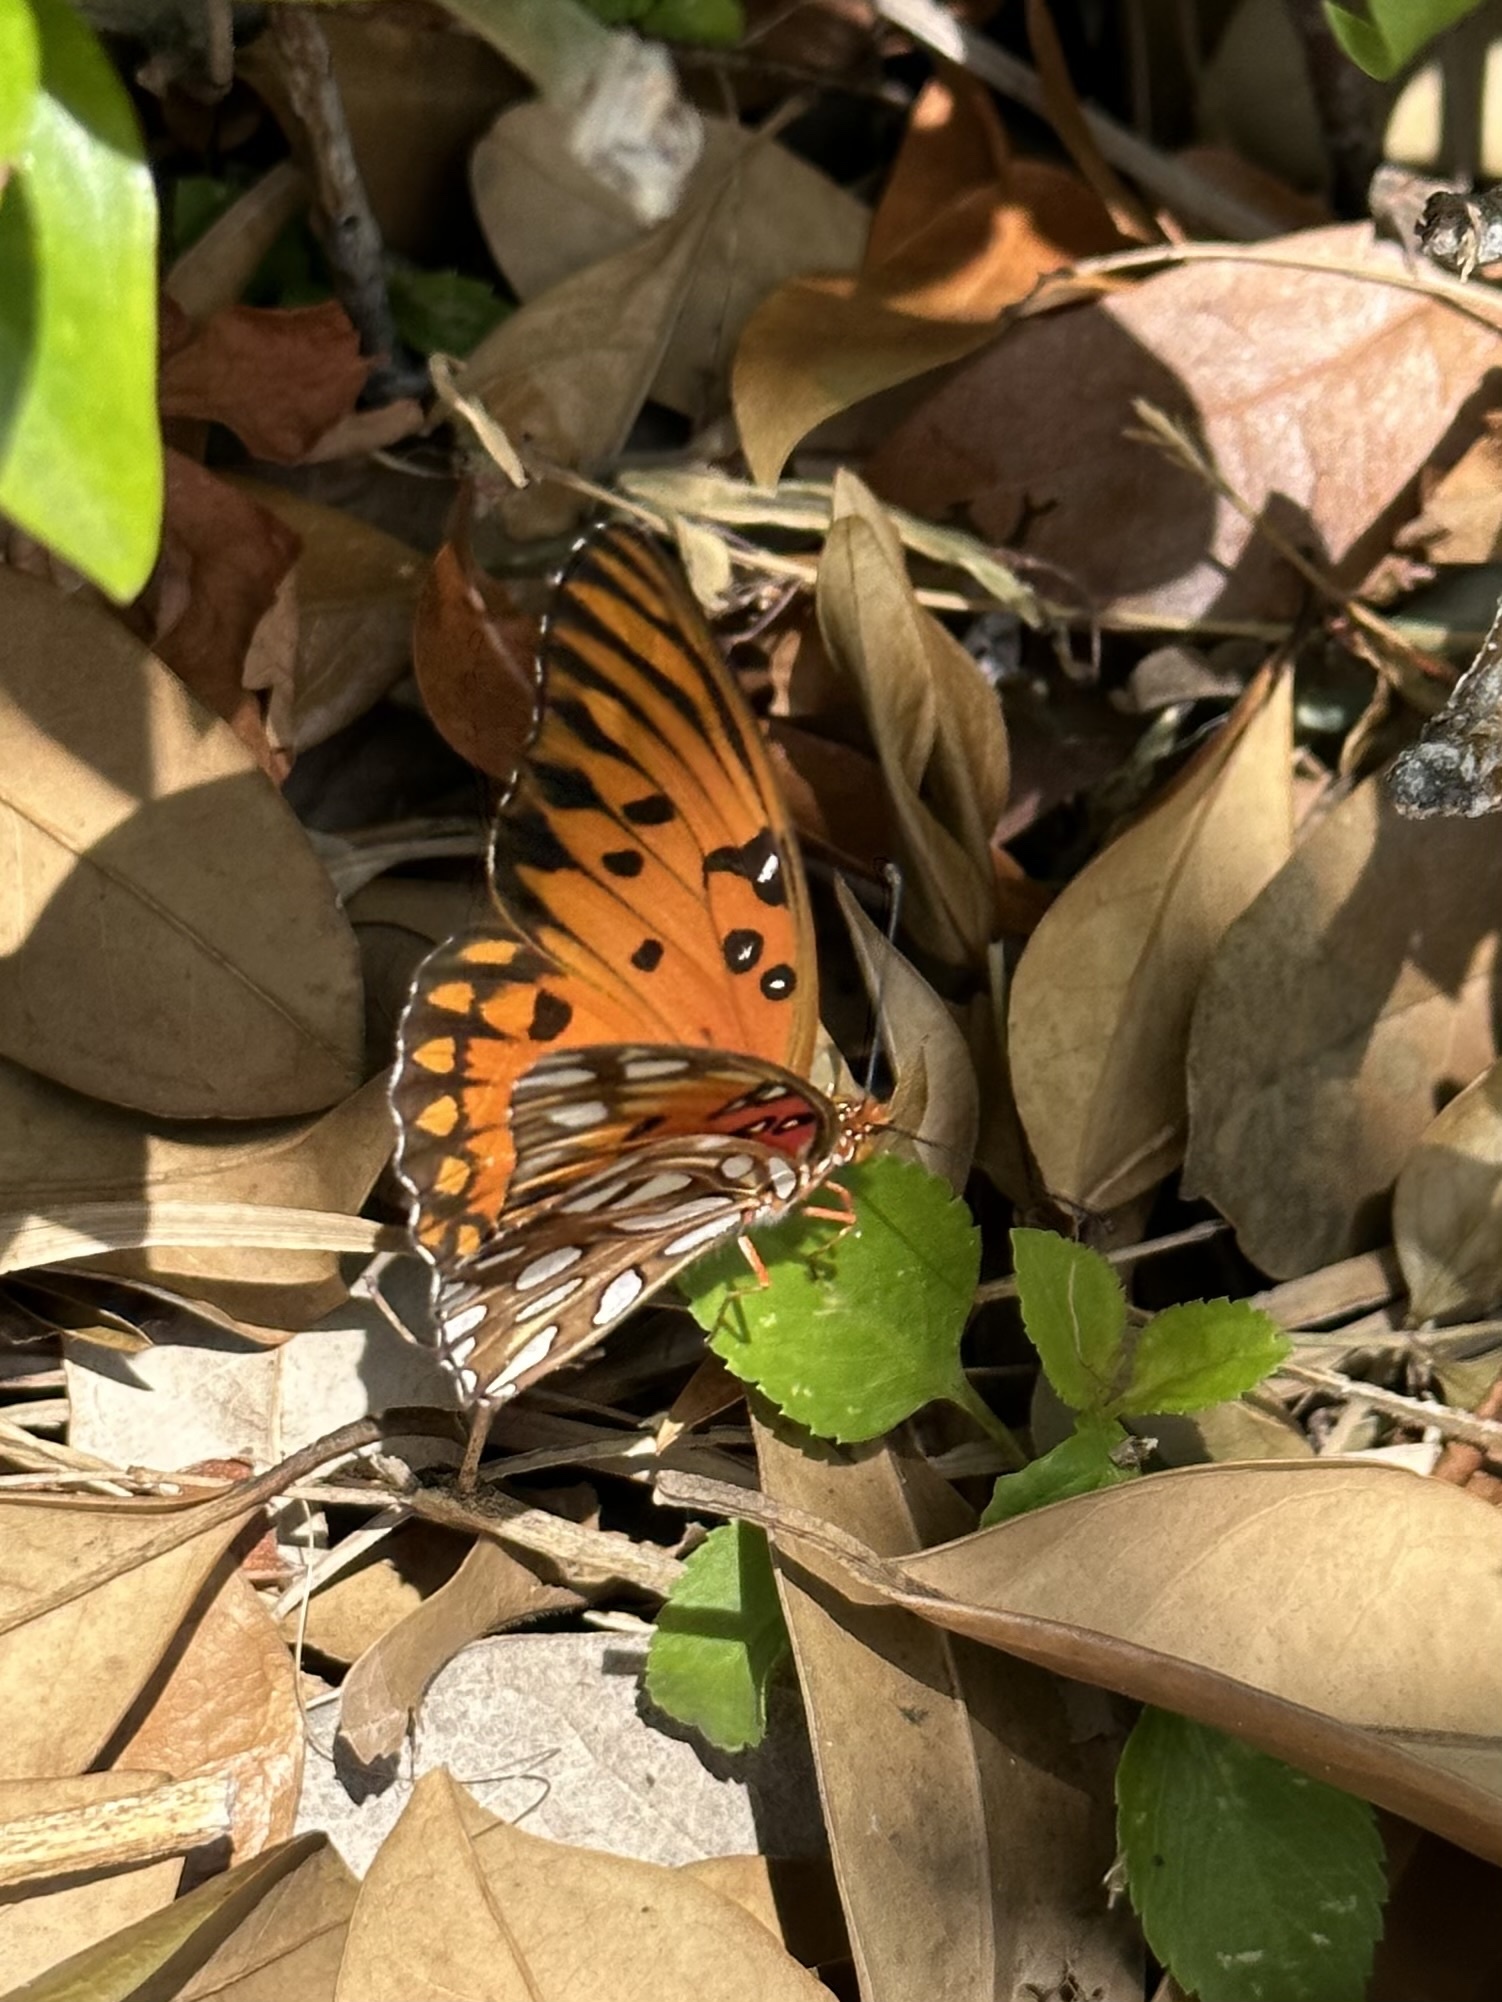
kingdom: Animalia
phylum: Arthropoda
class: Insecta
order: Lepidoptera
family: Nymphalidae
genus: Dione
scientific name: Dione vanillae
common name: Gulf fritillary
